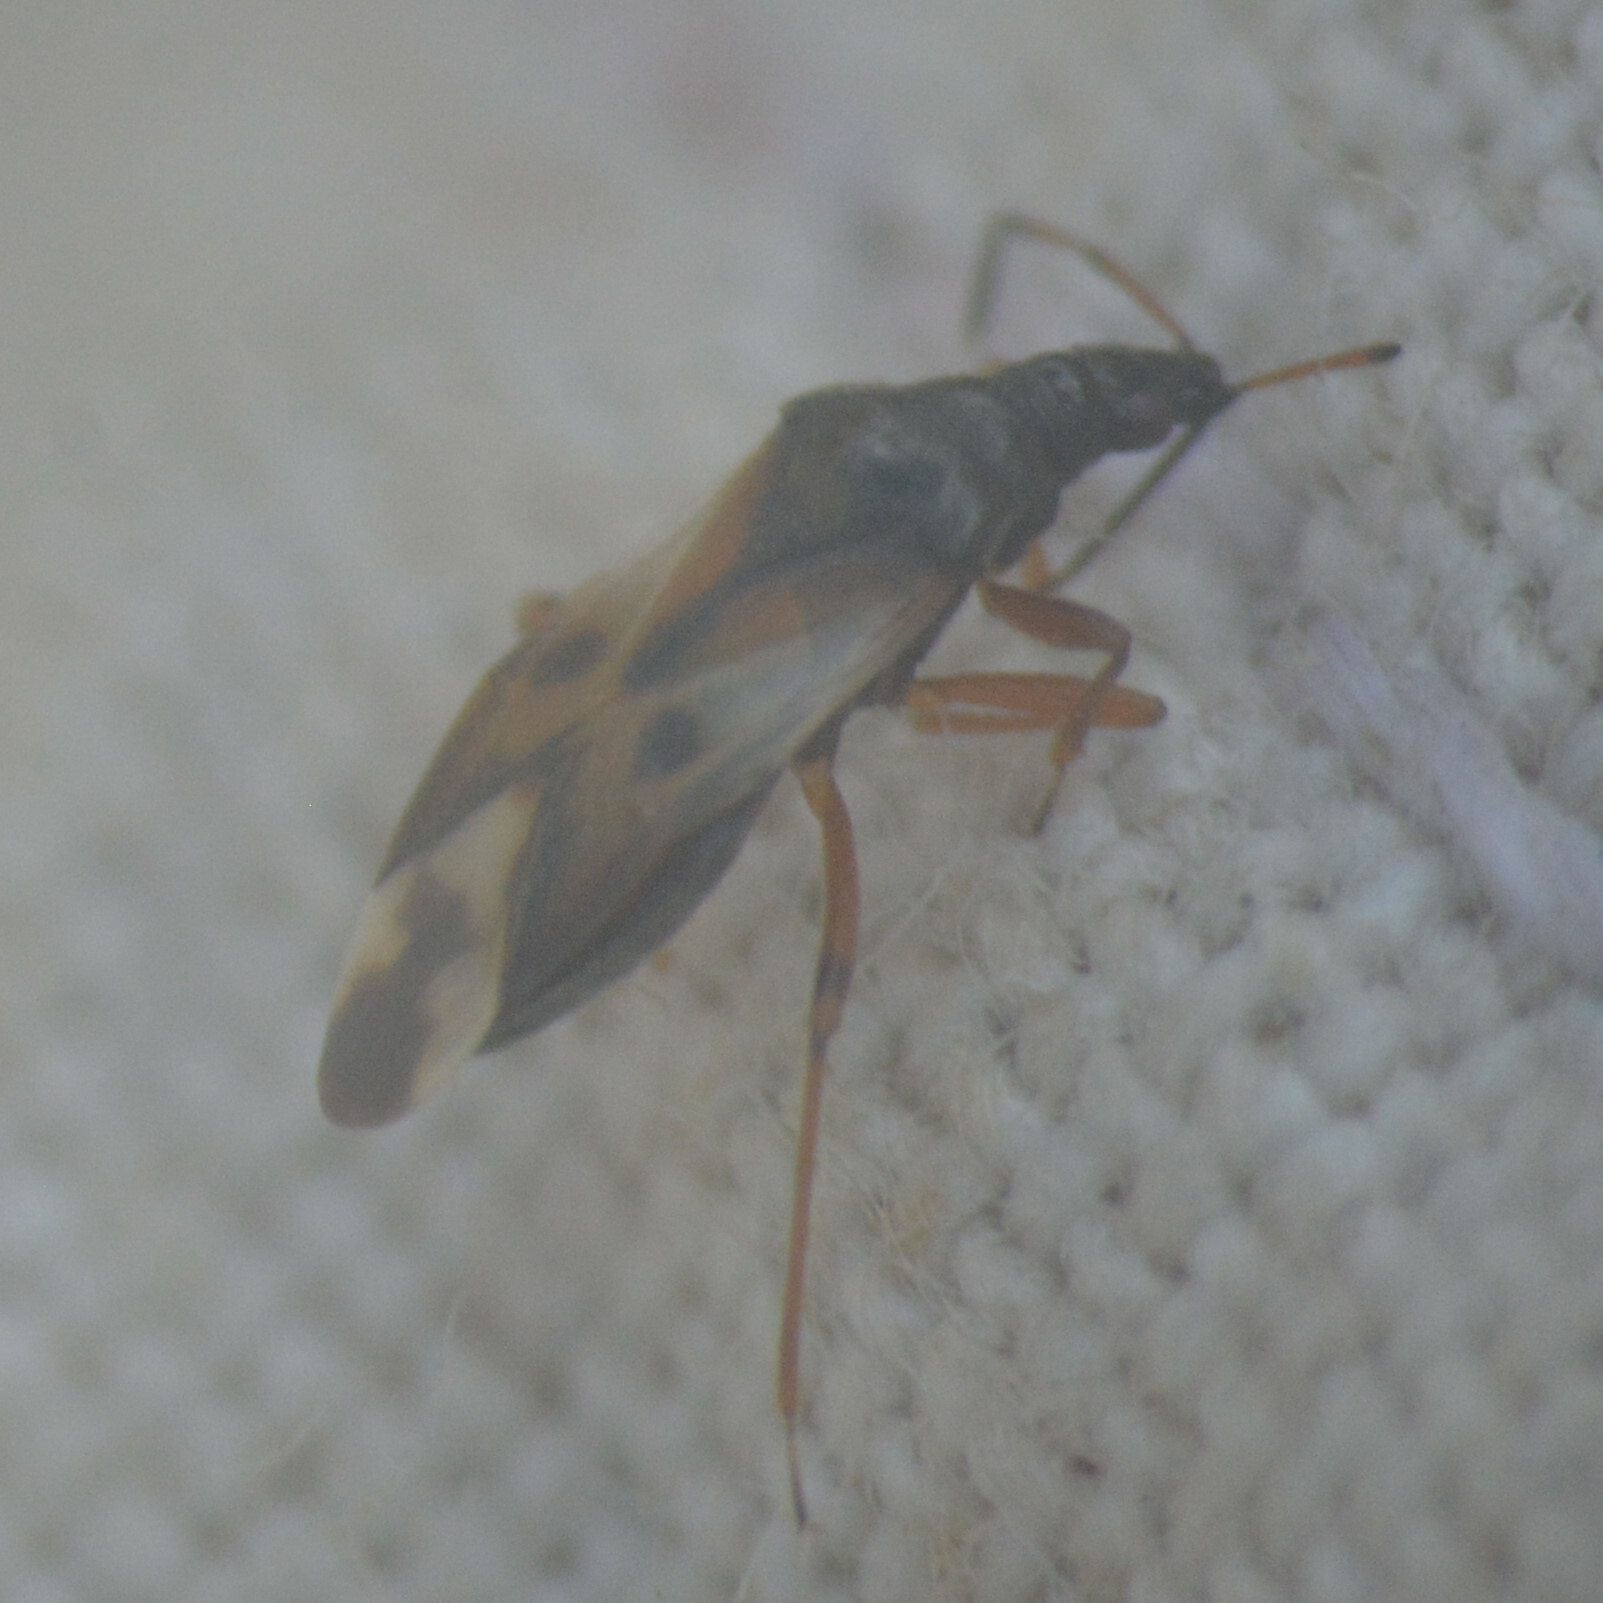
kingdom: Animalia
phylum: Arthropoda
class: Insecta
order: Hemiptera
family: Anthocoridae
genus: Anthocoris
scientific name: Anthocoris nemorum
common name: Minute pirate bug
